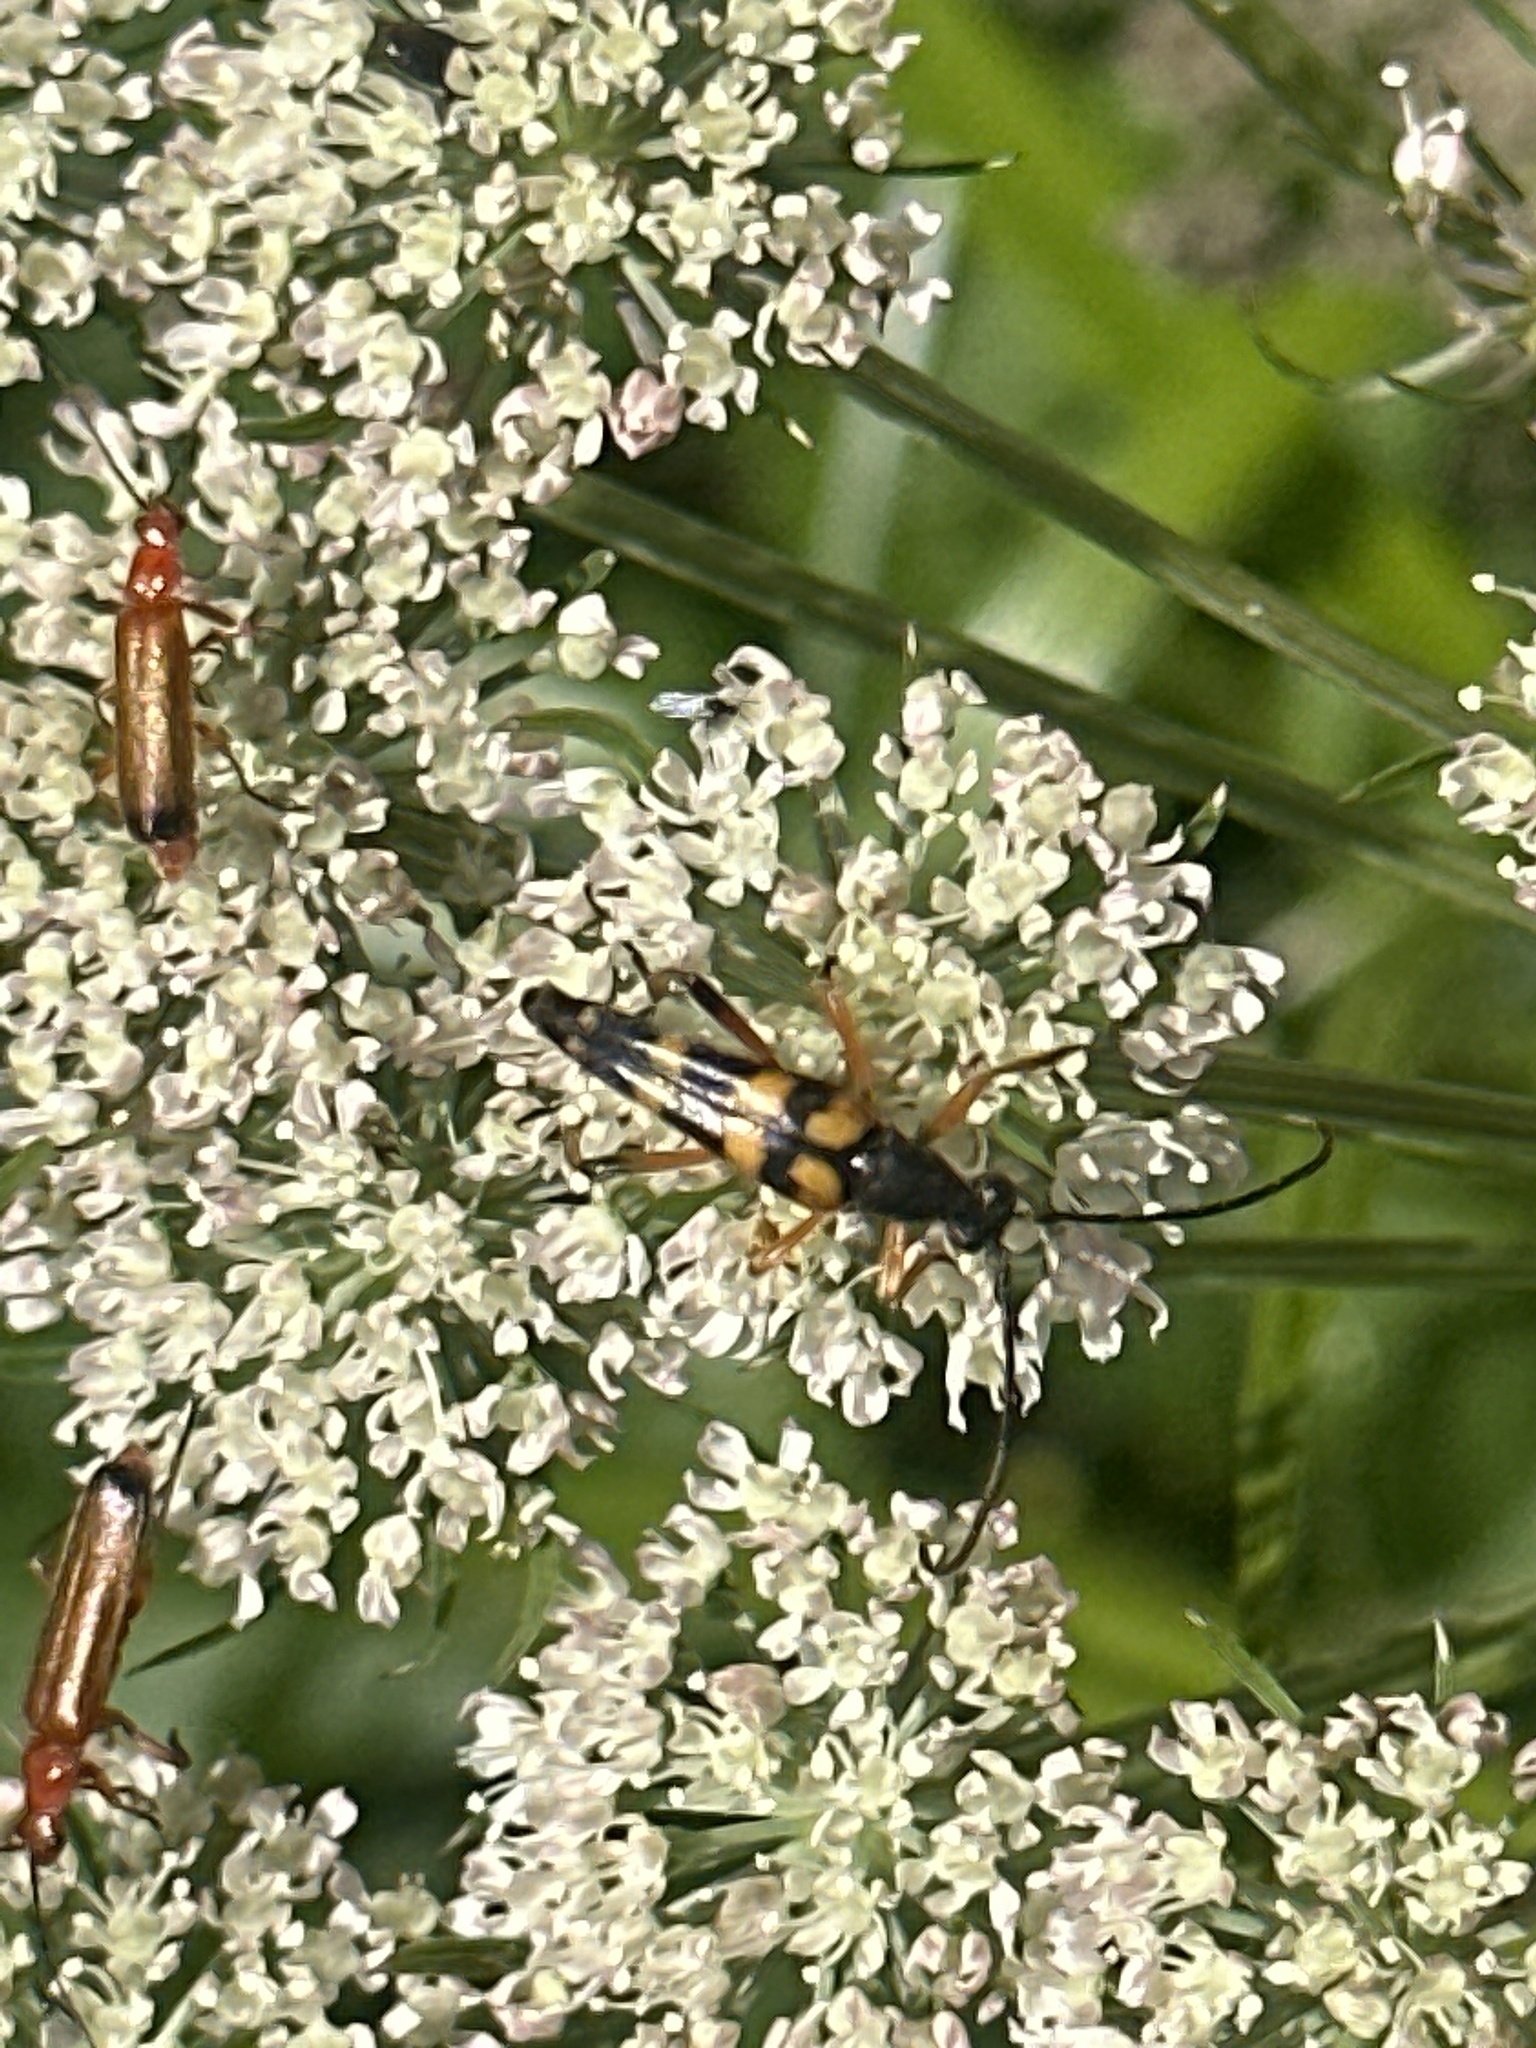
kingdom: Animalia
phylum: Arthropoda
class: Insecta
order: Coleoptera
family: Cerambycidae
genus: Strangalia
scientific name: Strangalia attenuata
